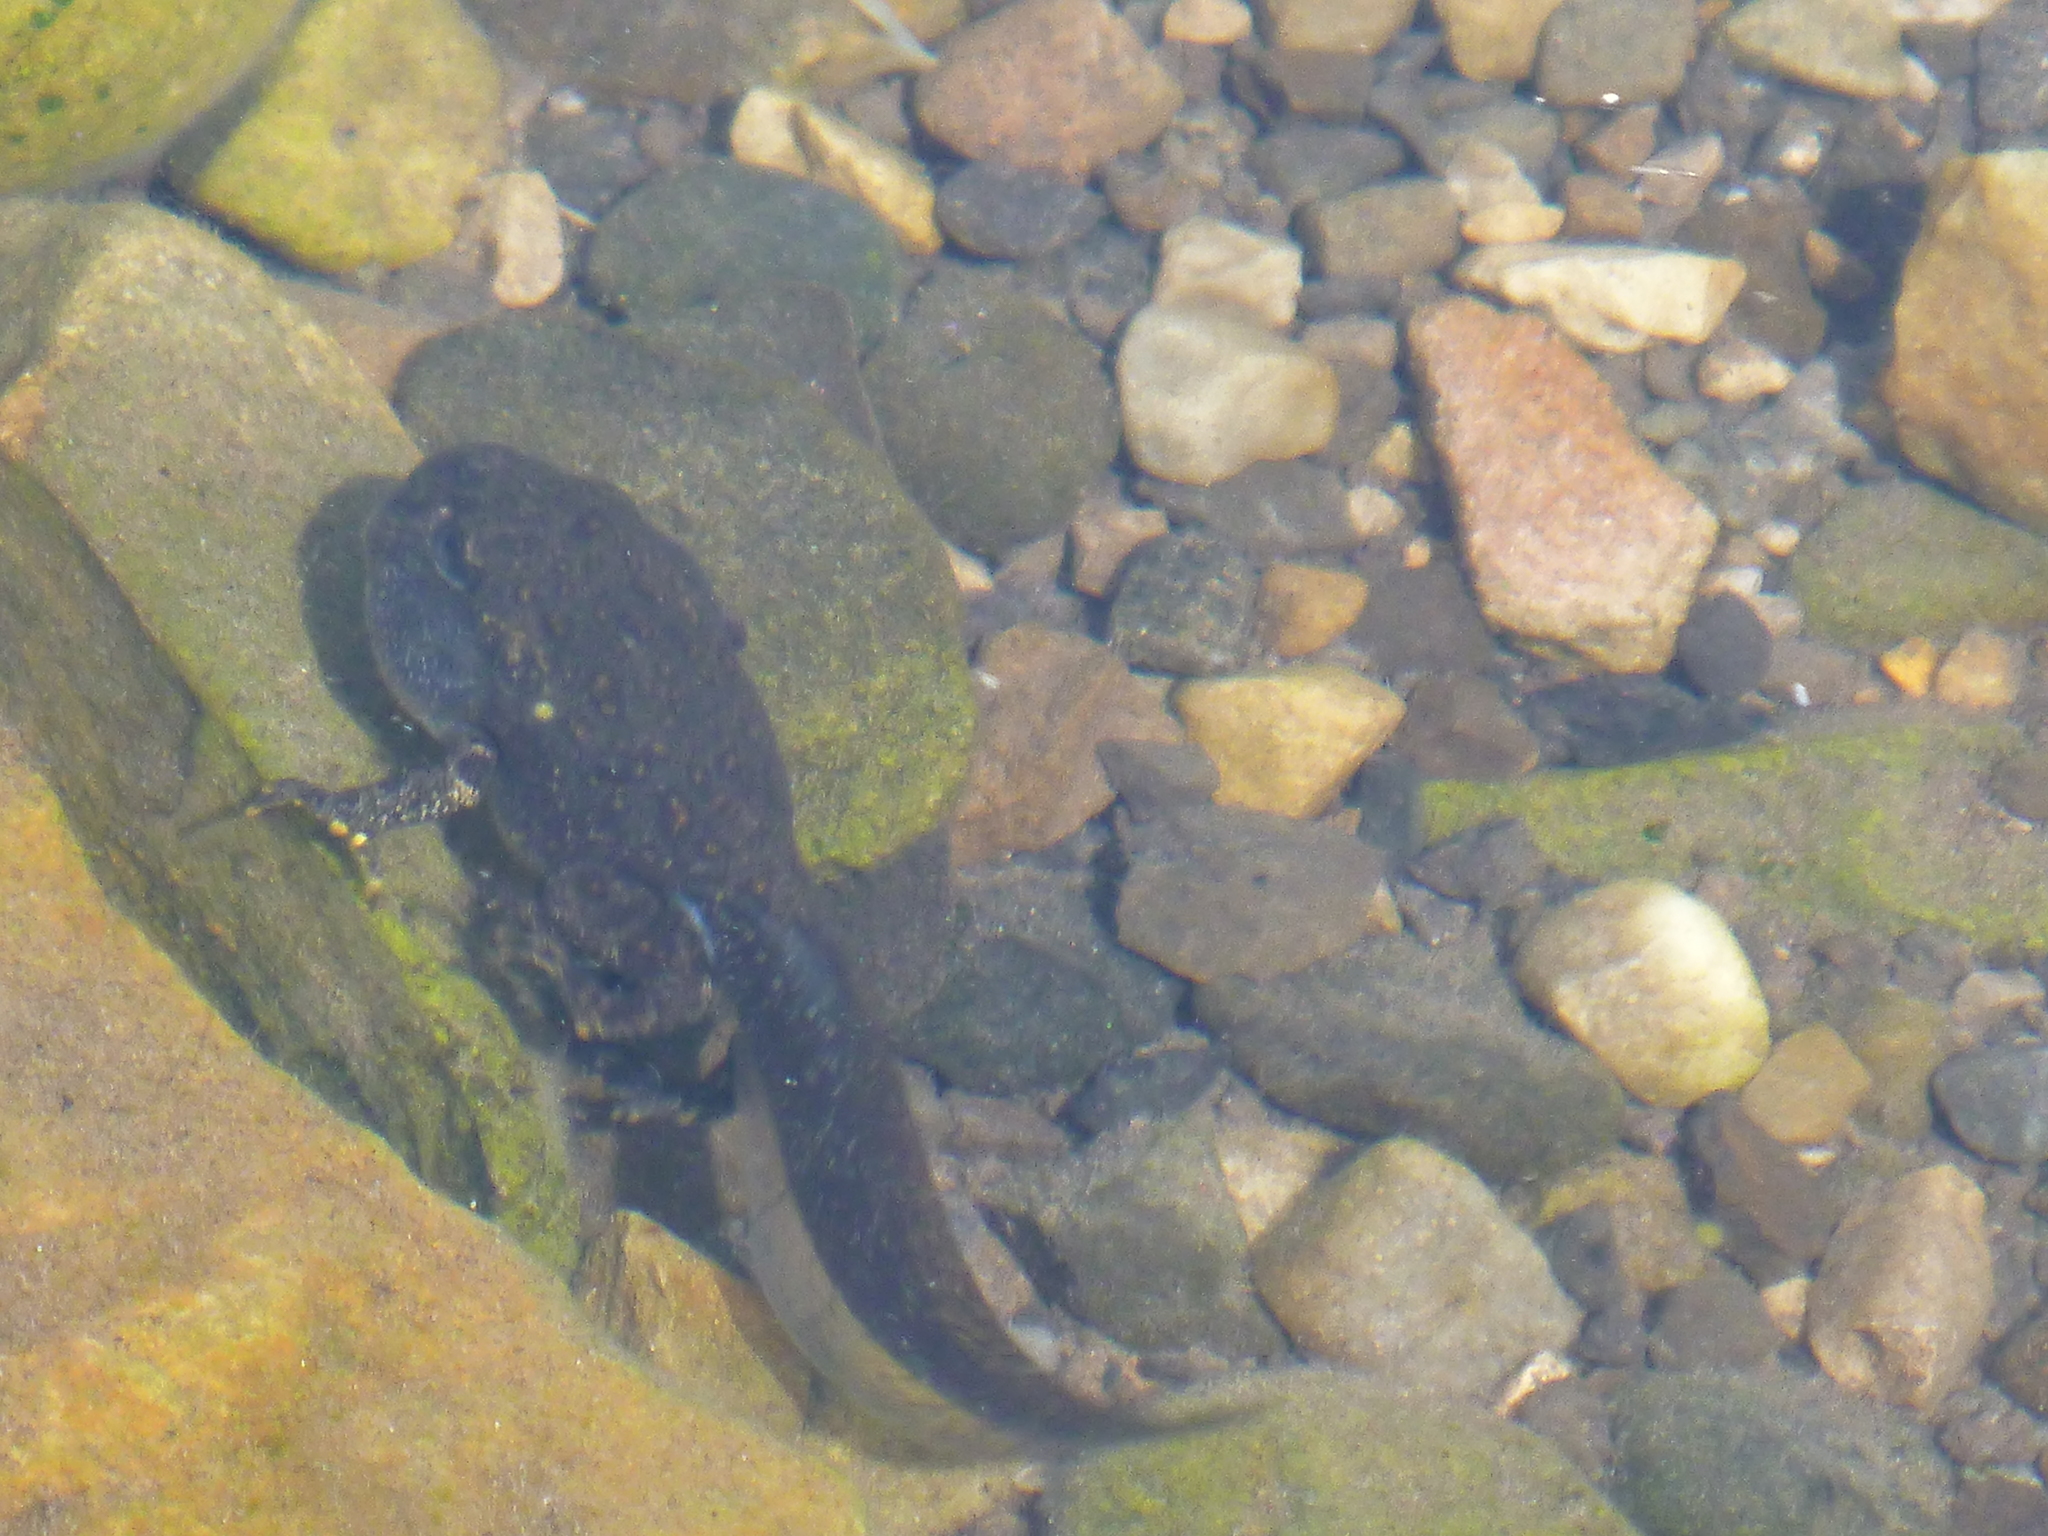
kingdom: Animalia
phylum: Chordata
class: Amphibia
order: Anura
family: Bufonidae
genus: Anaxyrus
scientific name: Anaxyrus boreas
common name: Western toad
